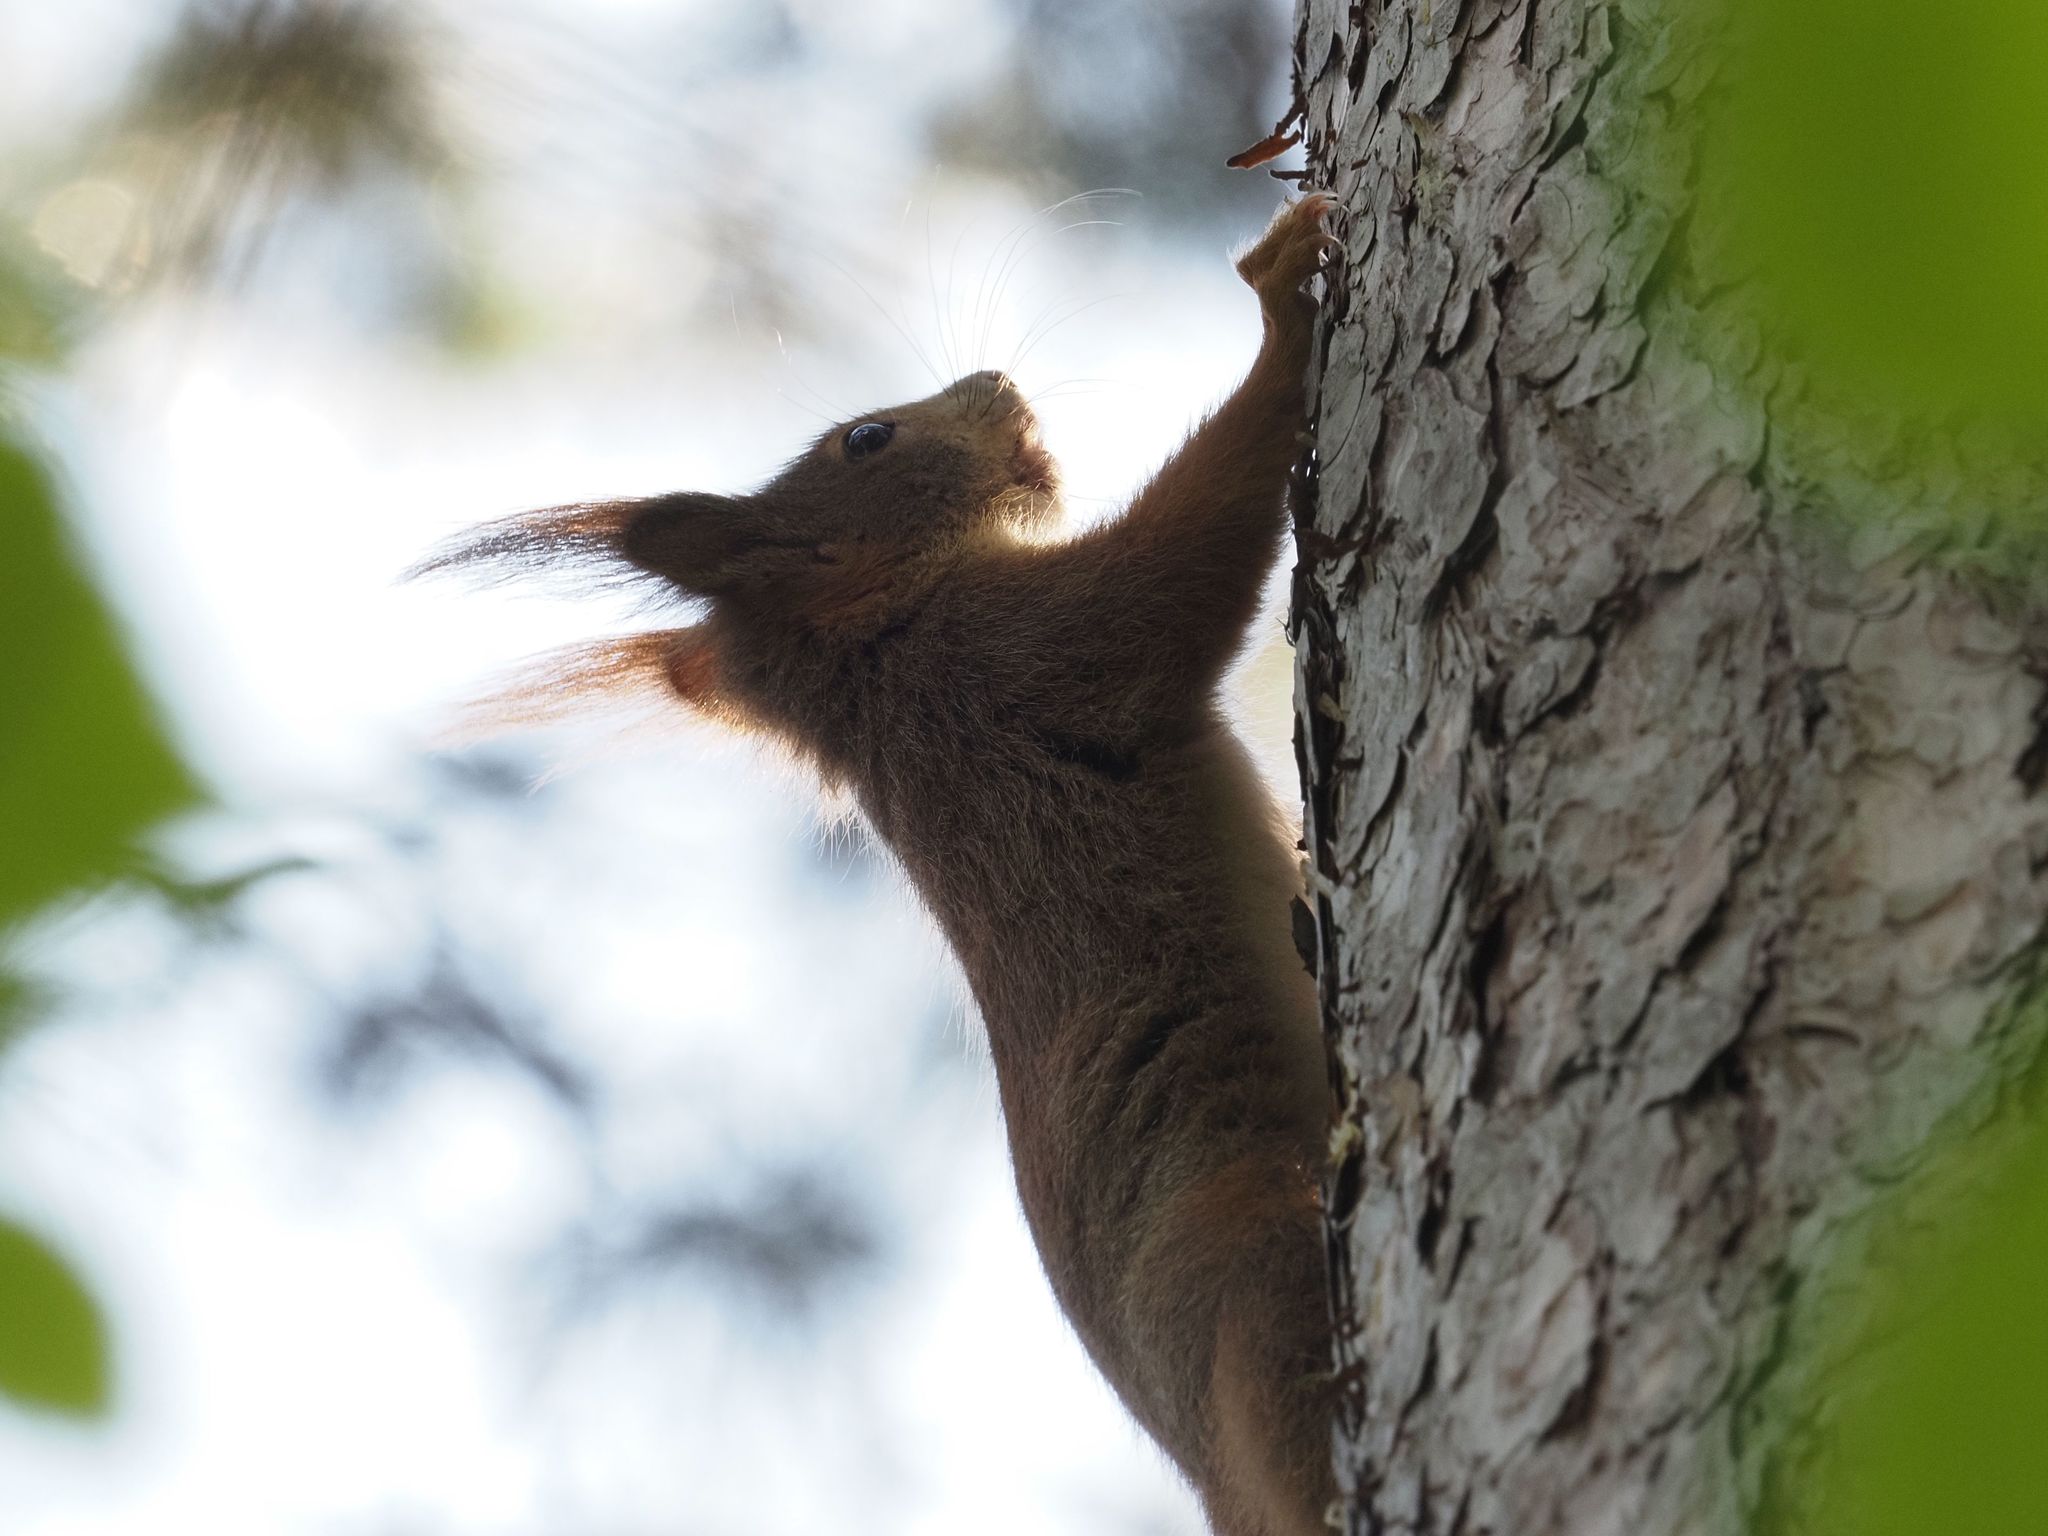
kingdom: Animalia
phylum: Chordata
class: Mammalia
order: Rodentia
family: Sciuridae
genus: Sciurus
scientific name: Sciurus vulgaris
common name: Eurasian red squirrel
